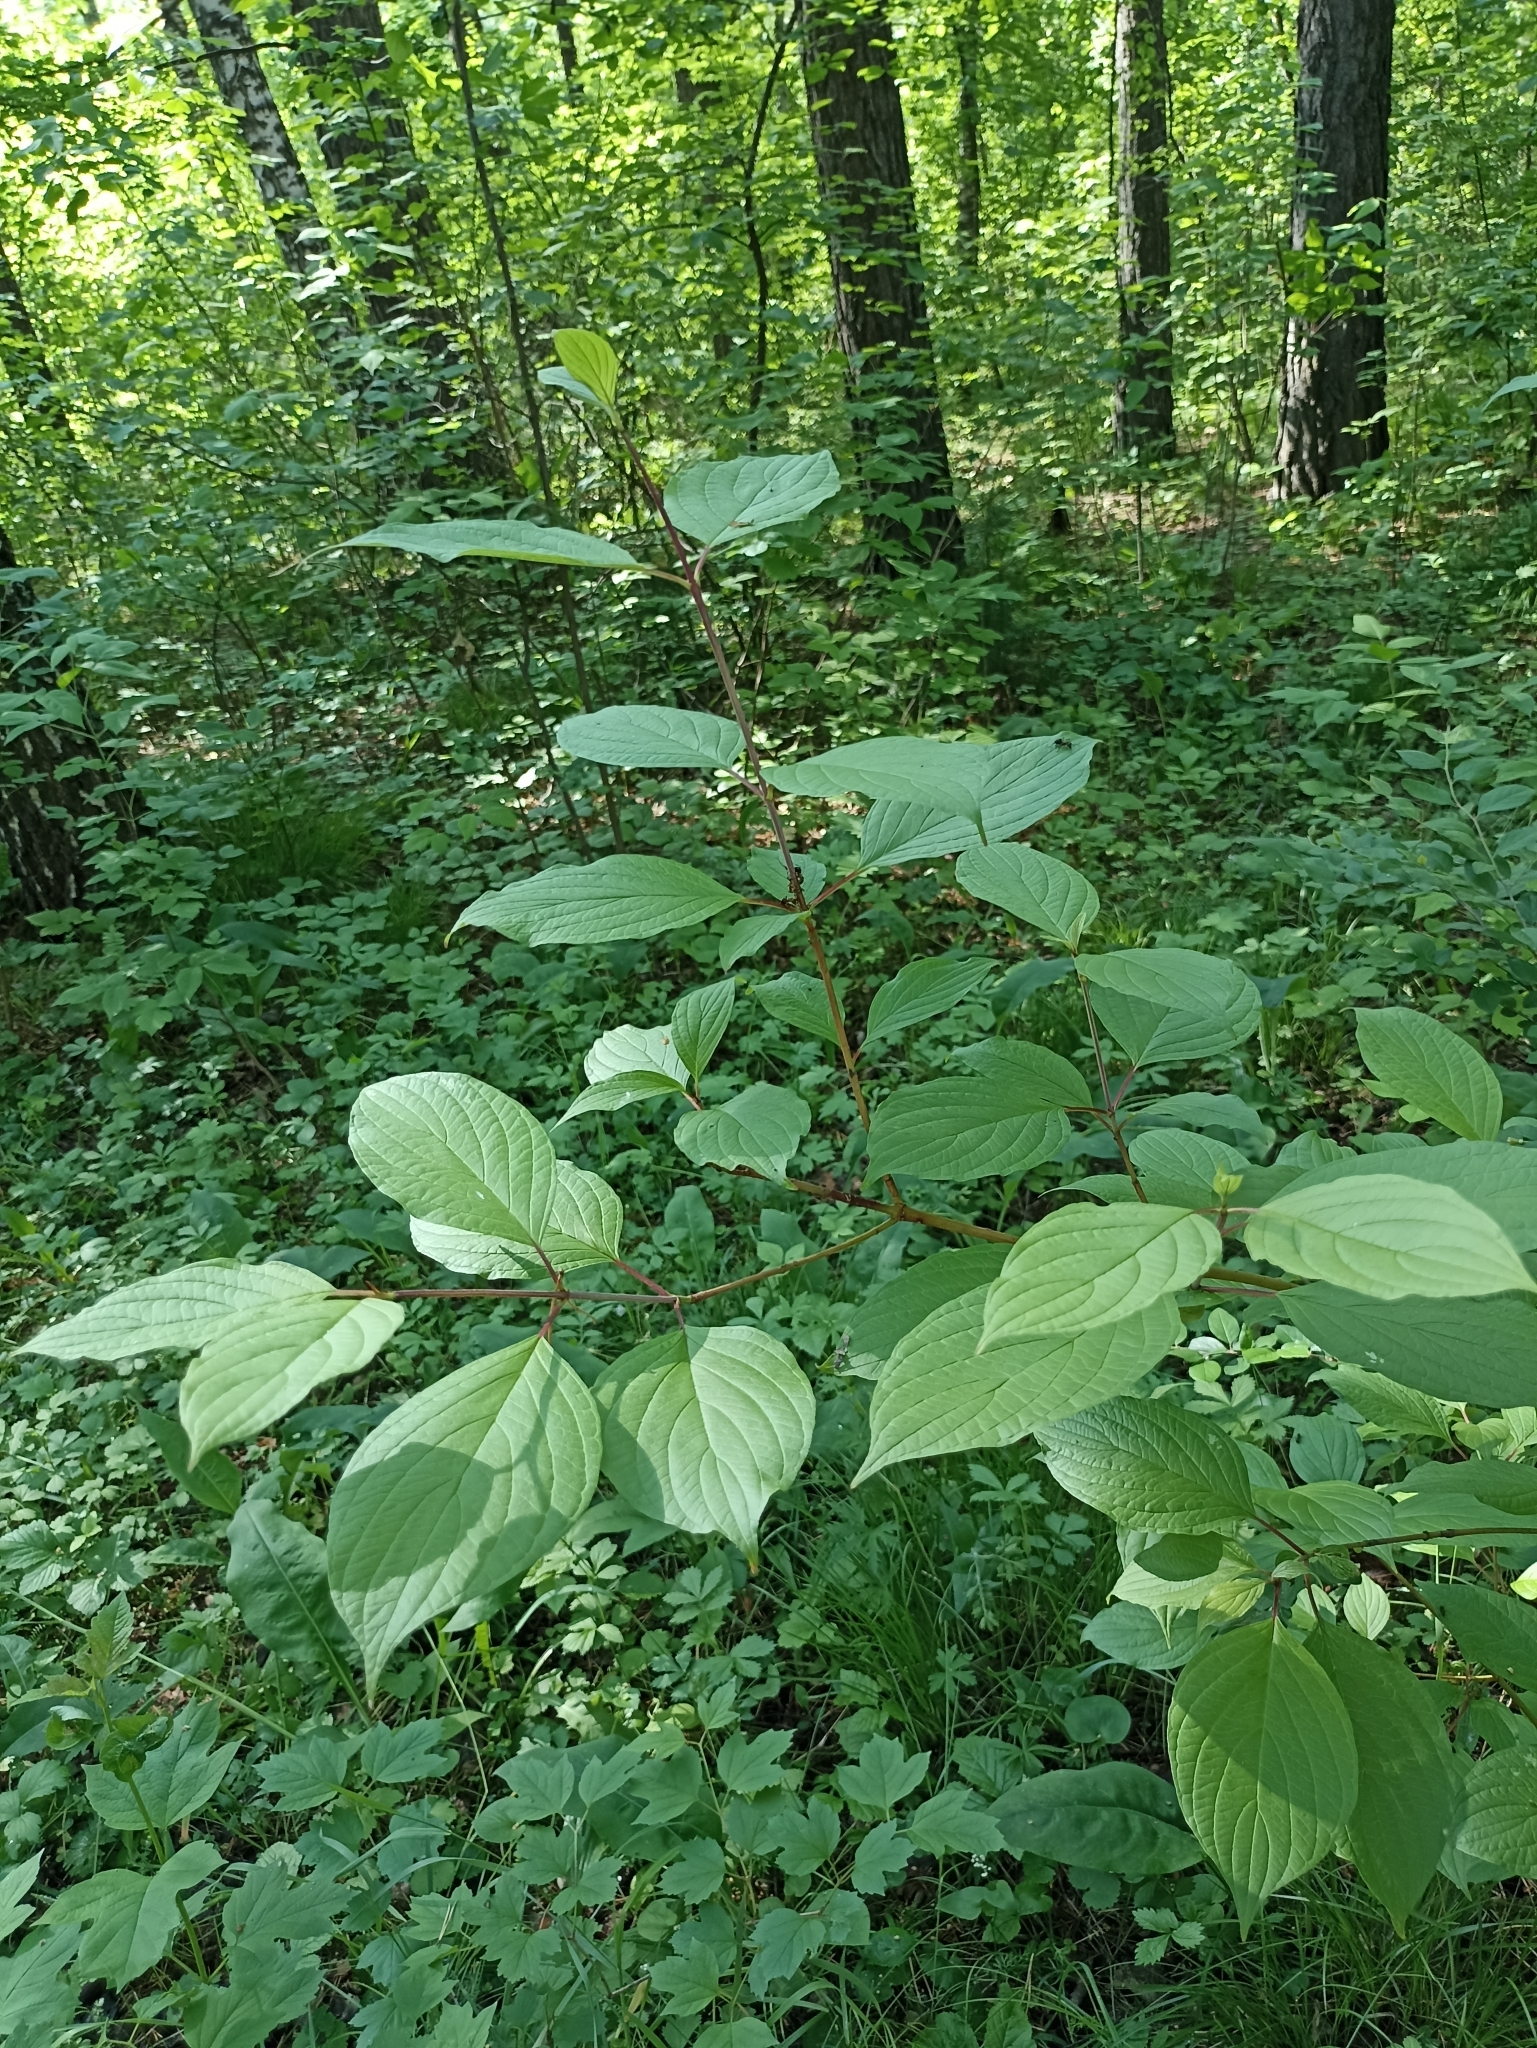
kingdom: Plantae
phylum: Tracheophyta
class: Magnoliopsida
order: Cornales
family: Cornaceae
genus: Cornus
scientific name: Cornus alba
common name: White dogwood
